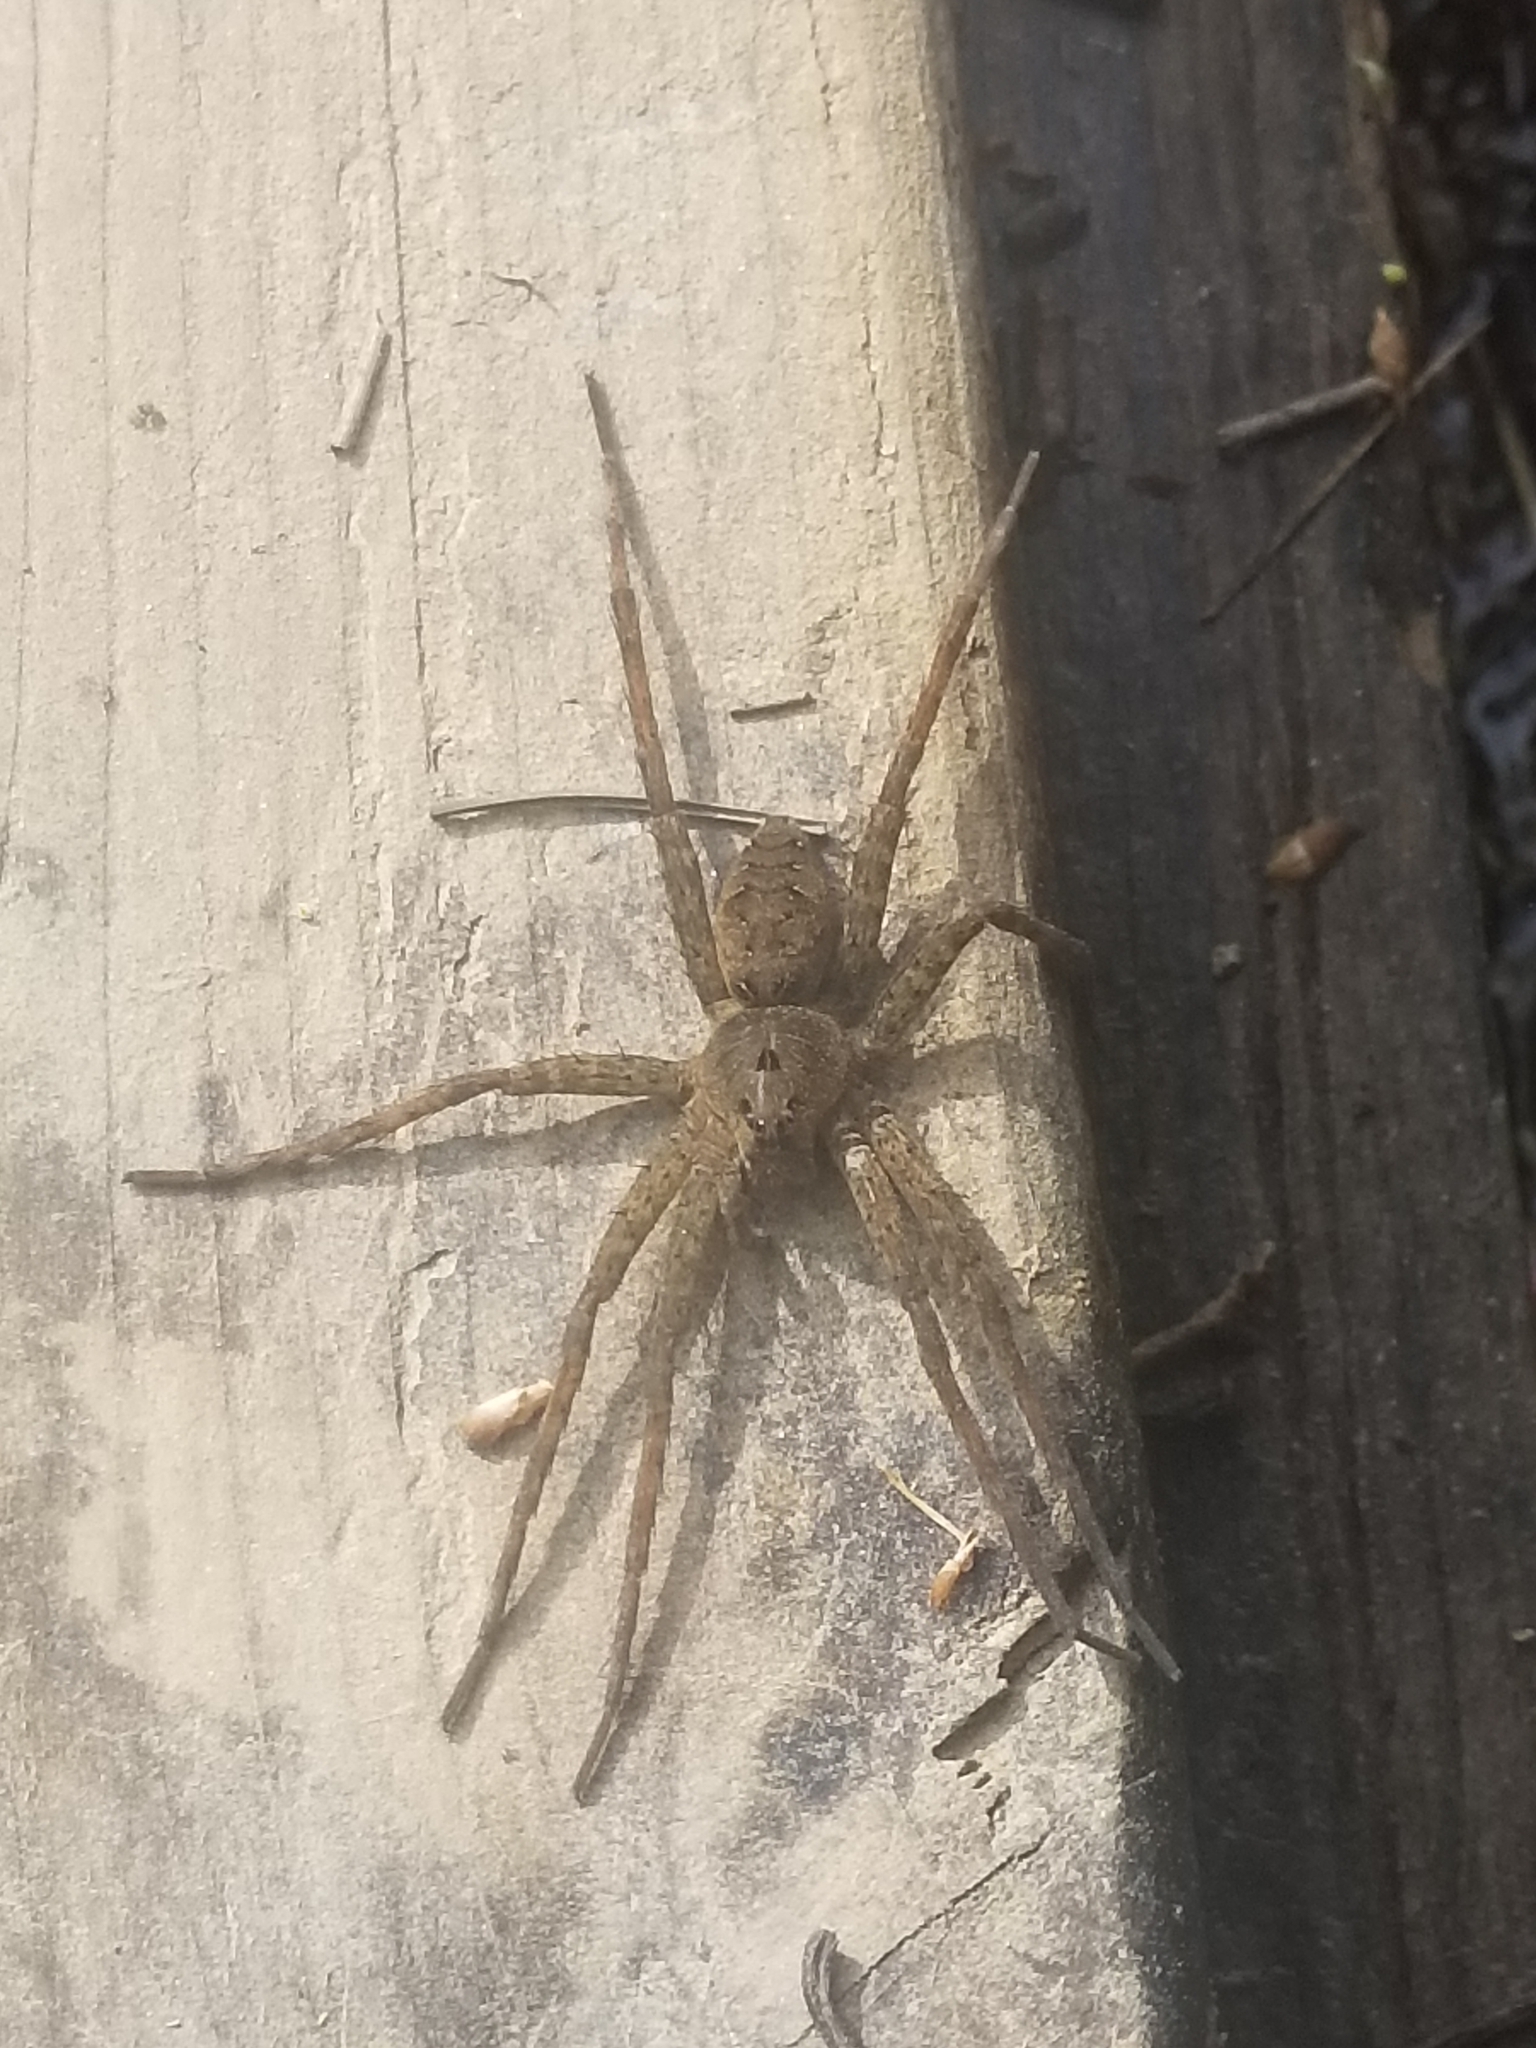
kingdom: Animalia
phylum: Arthropoda
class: Arachnida
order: Araneae
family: Pisauridae
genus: Dolomedes
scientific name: Dolomedes vittatus
